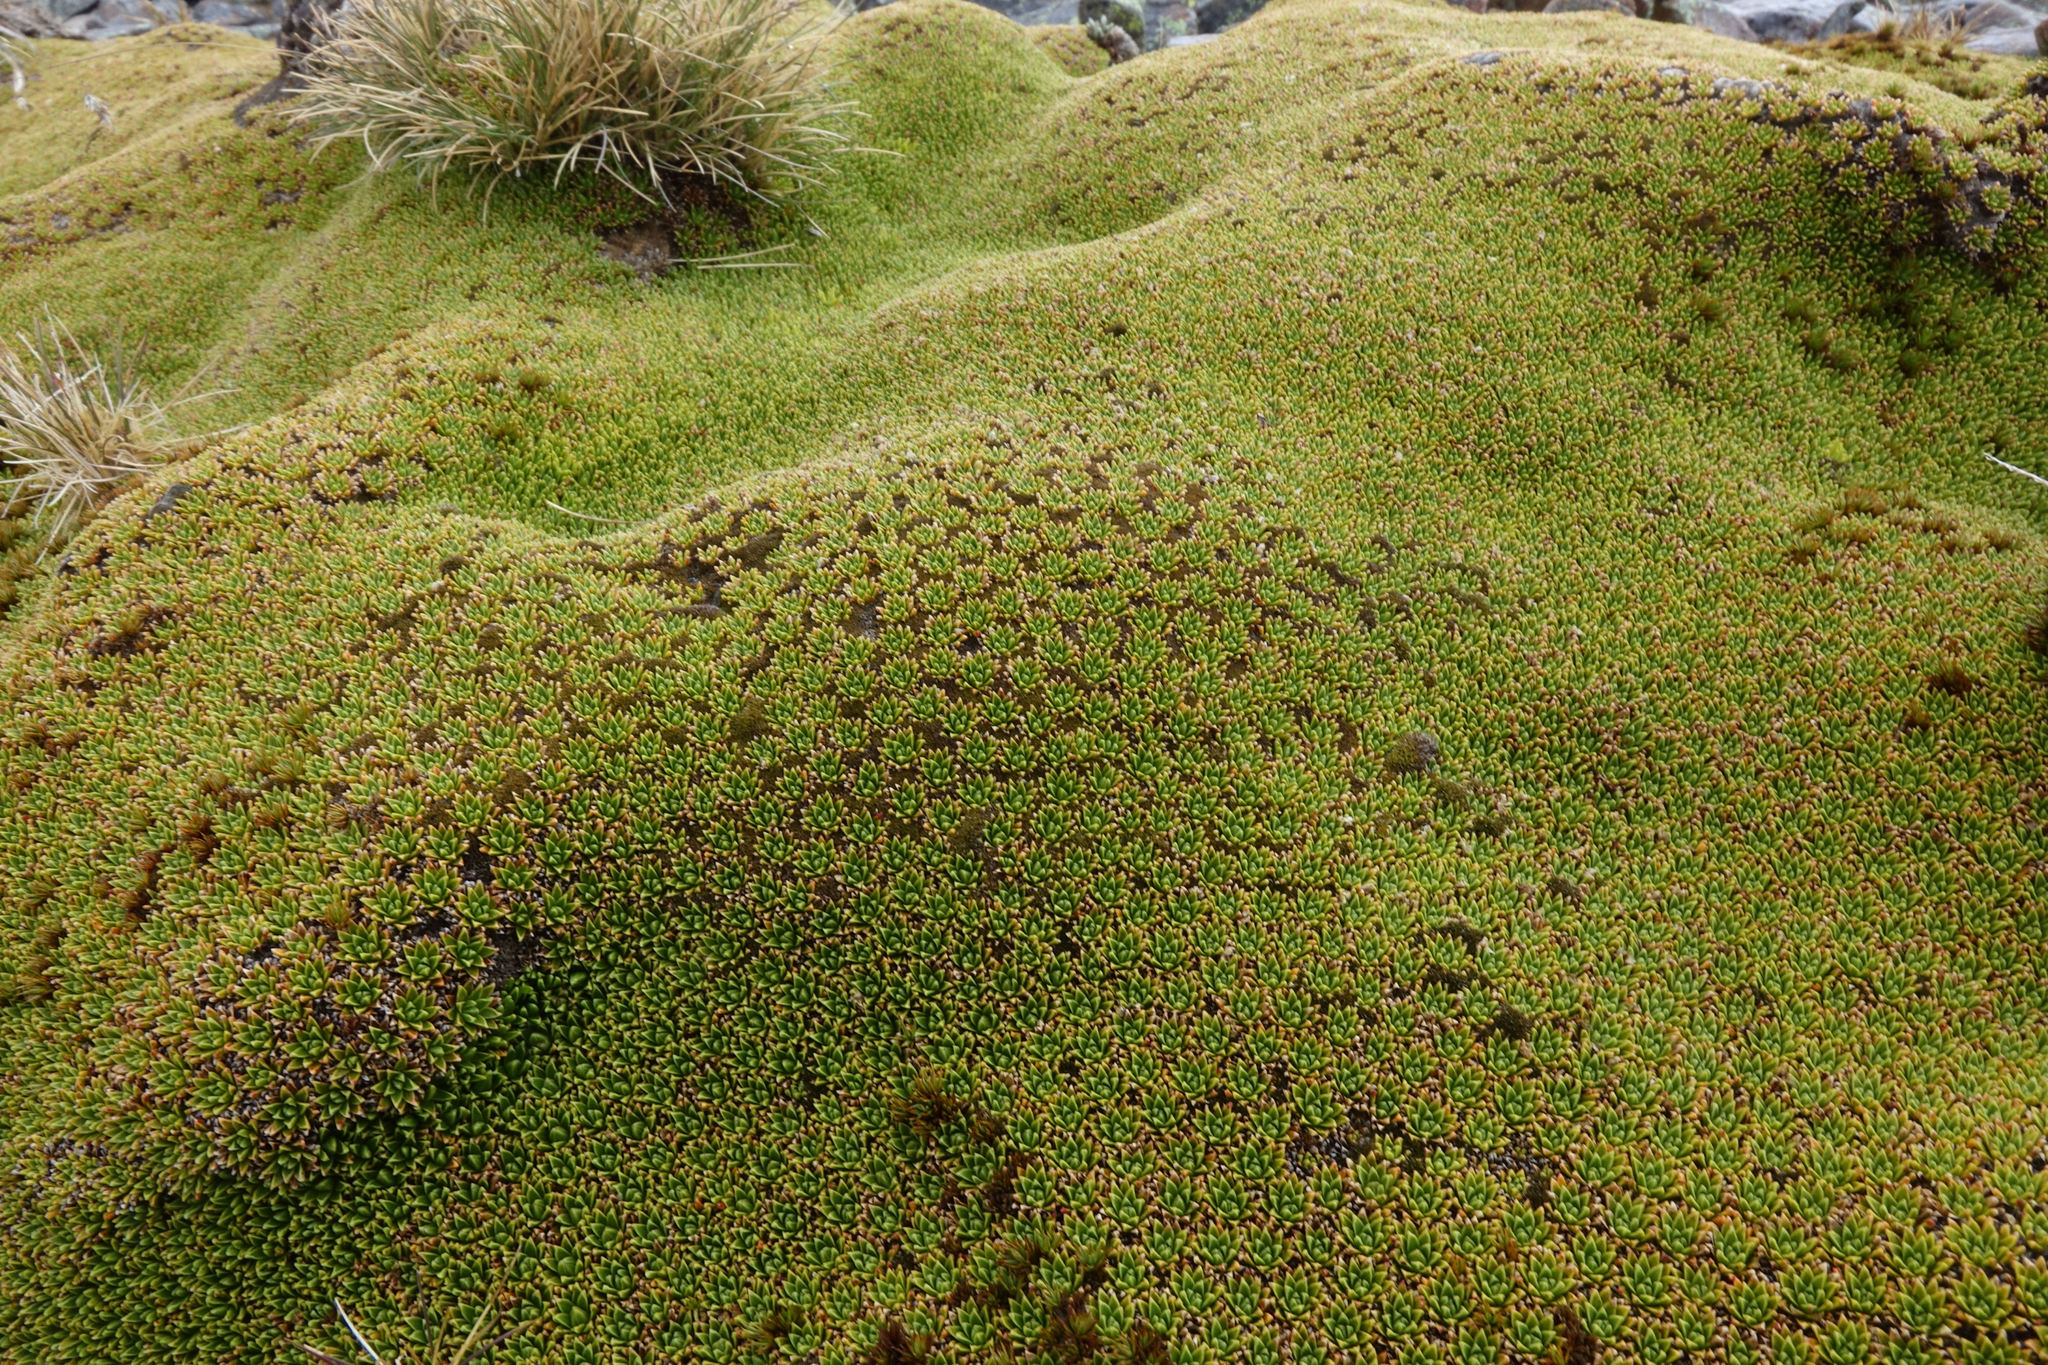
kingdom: Plantae
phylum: Tracheophyta
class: Magnoliopsida
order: Caryophyllales
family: Montiaceae
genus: Hectorella
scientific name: Hectorella caespitosa
